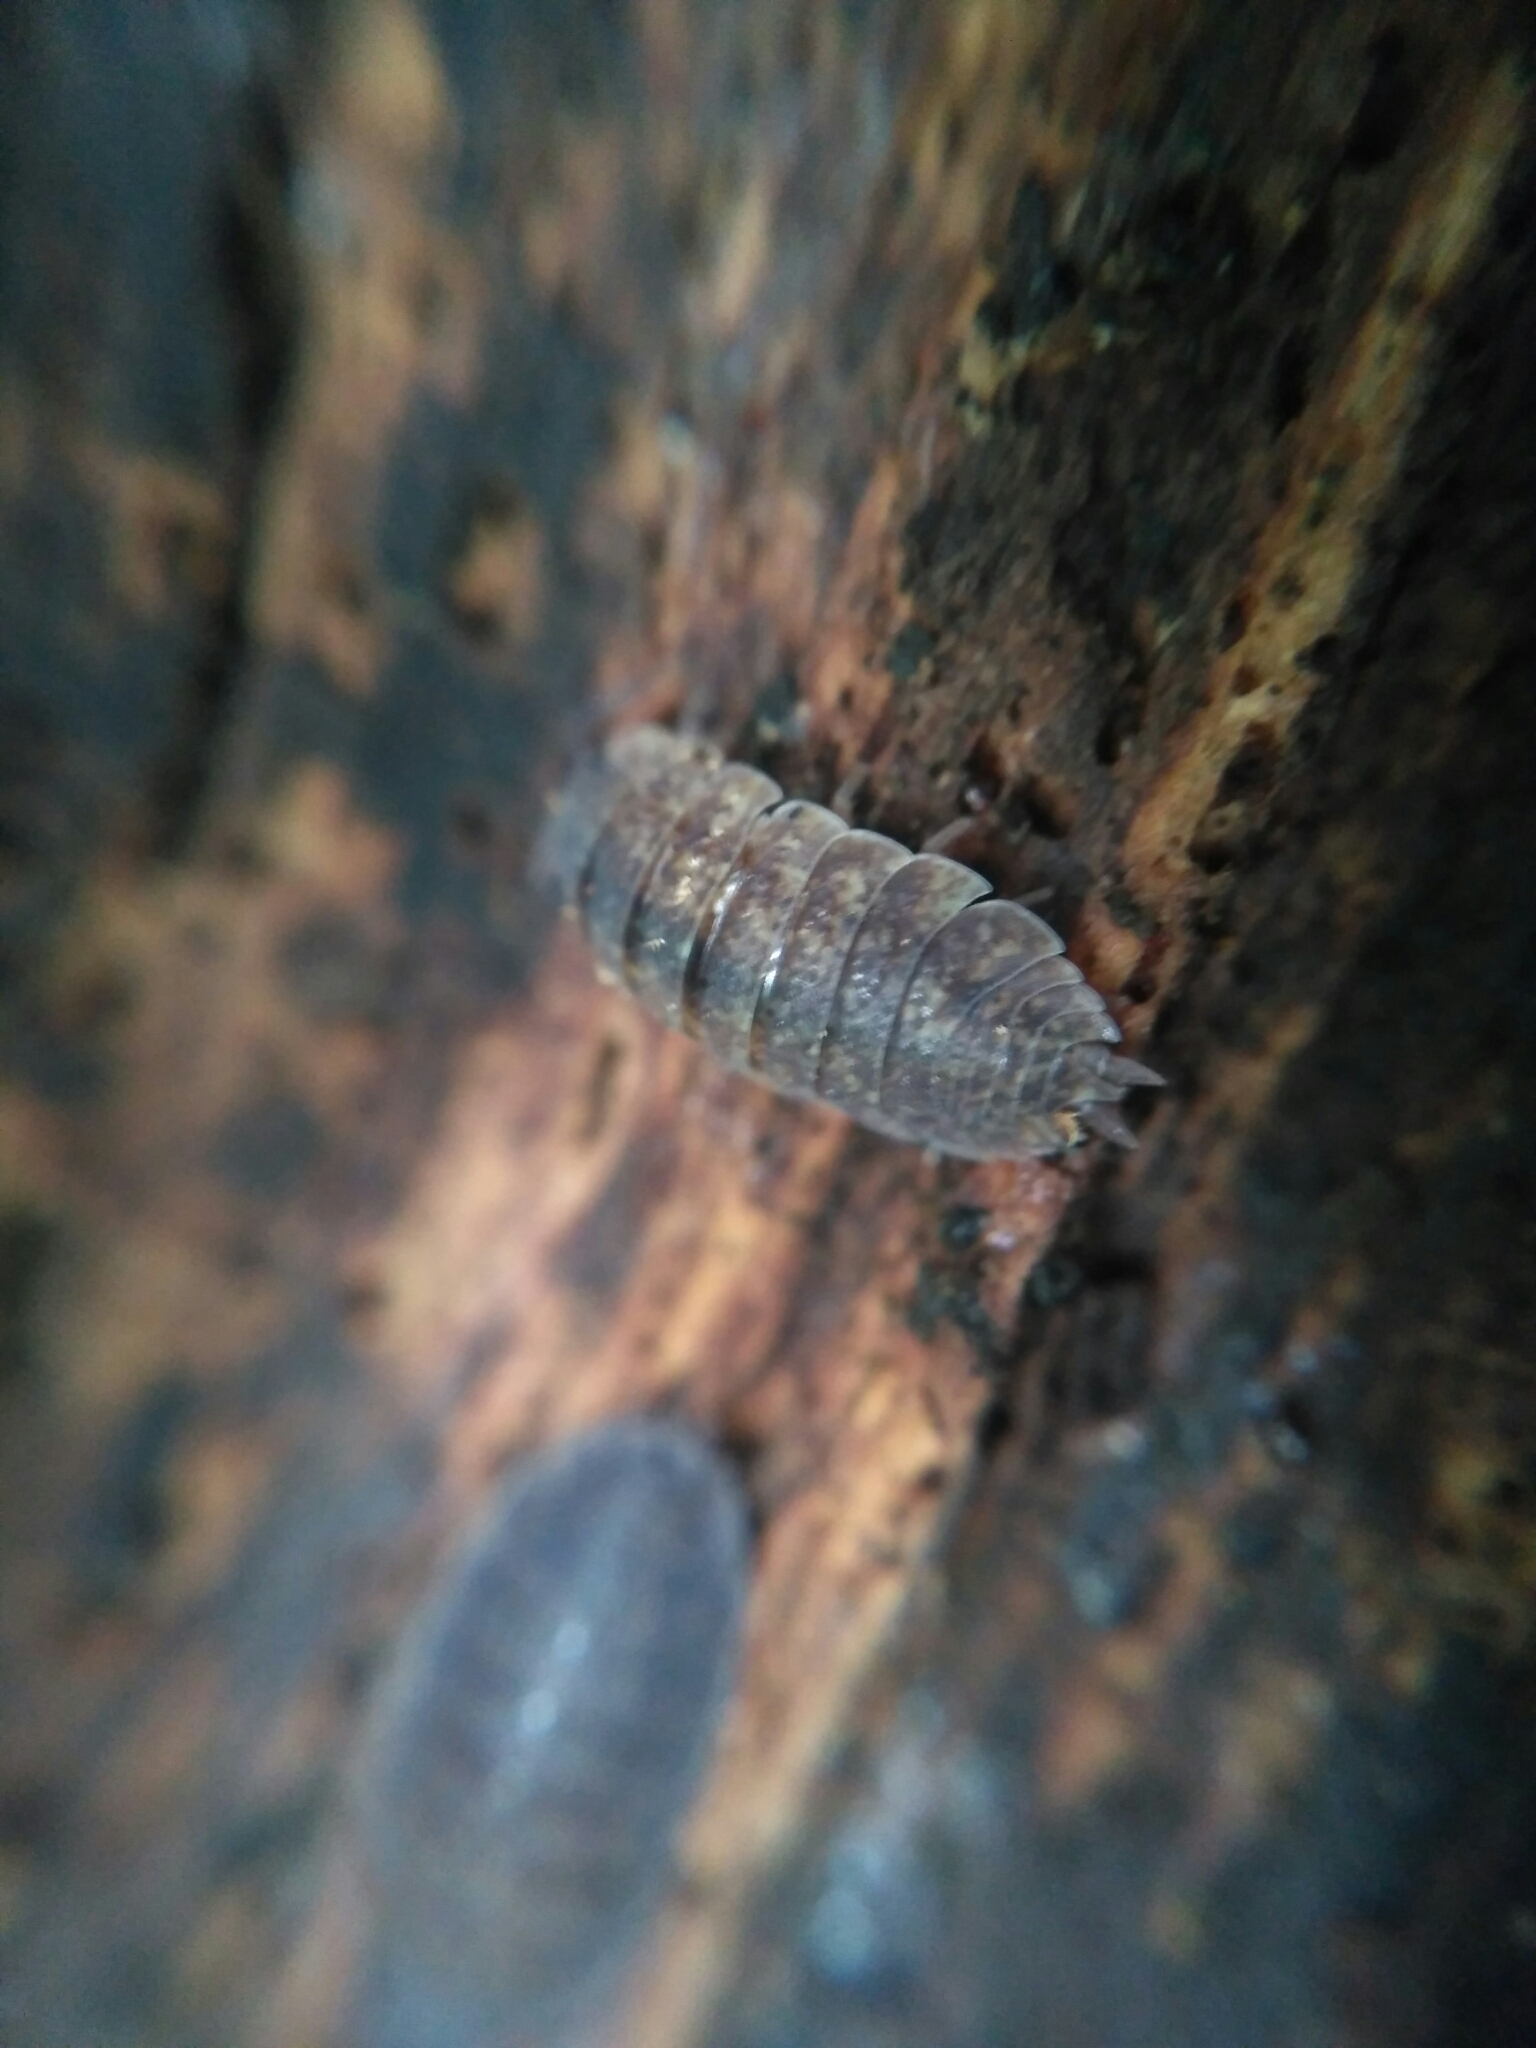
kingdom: Animalia
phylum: Arthropoda
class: Malacostraca
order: Isopoda
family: Porcellionidae
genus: Porcellio
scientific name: Porcellio scaber
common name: Common rough woodlouse
